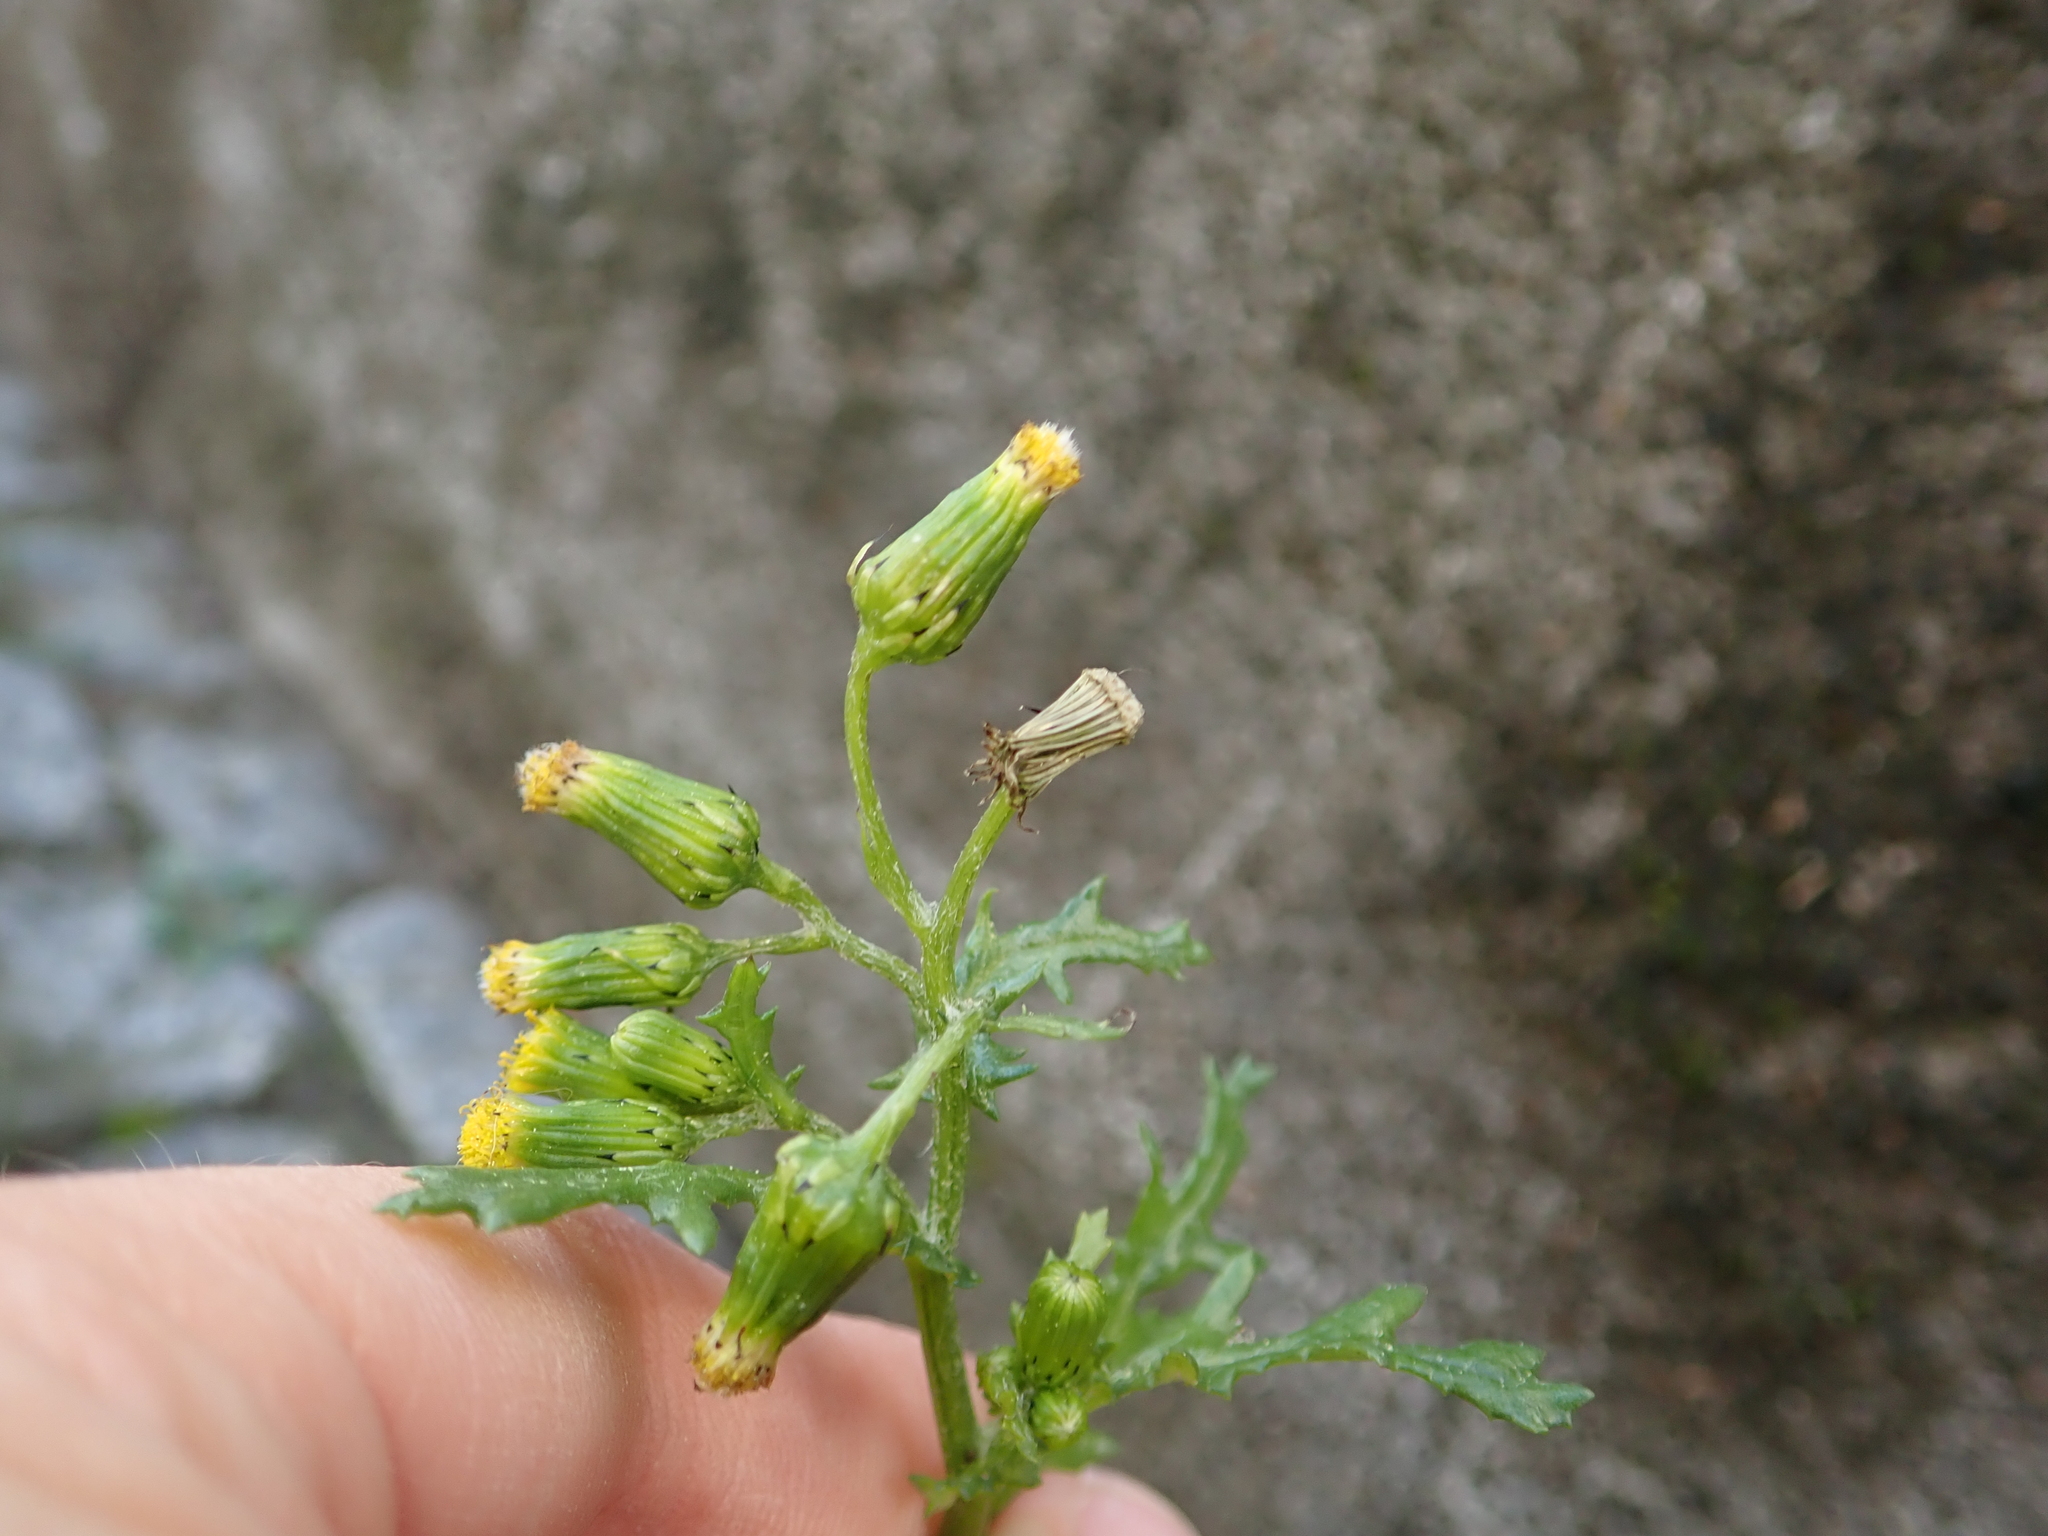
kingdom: Plantae
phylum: Tracheophyta
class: Magnoliopsida
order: Asterales
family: Asteraceae
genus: Senecio
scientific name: Senecio vulgaris
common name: Old-man-in-the-spring
